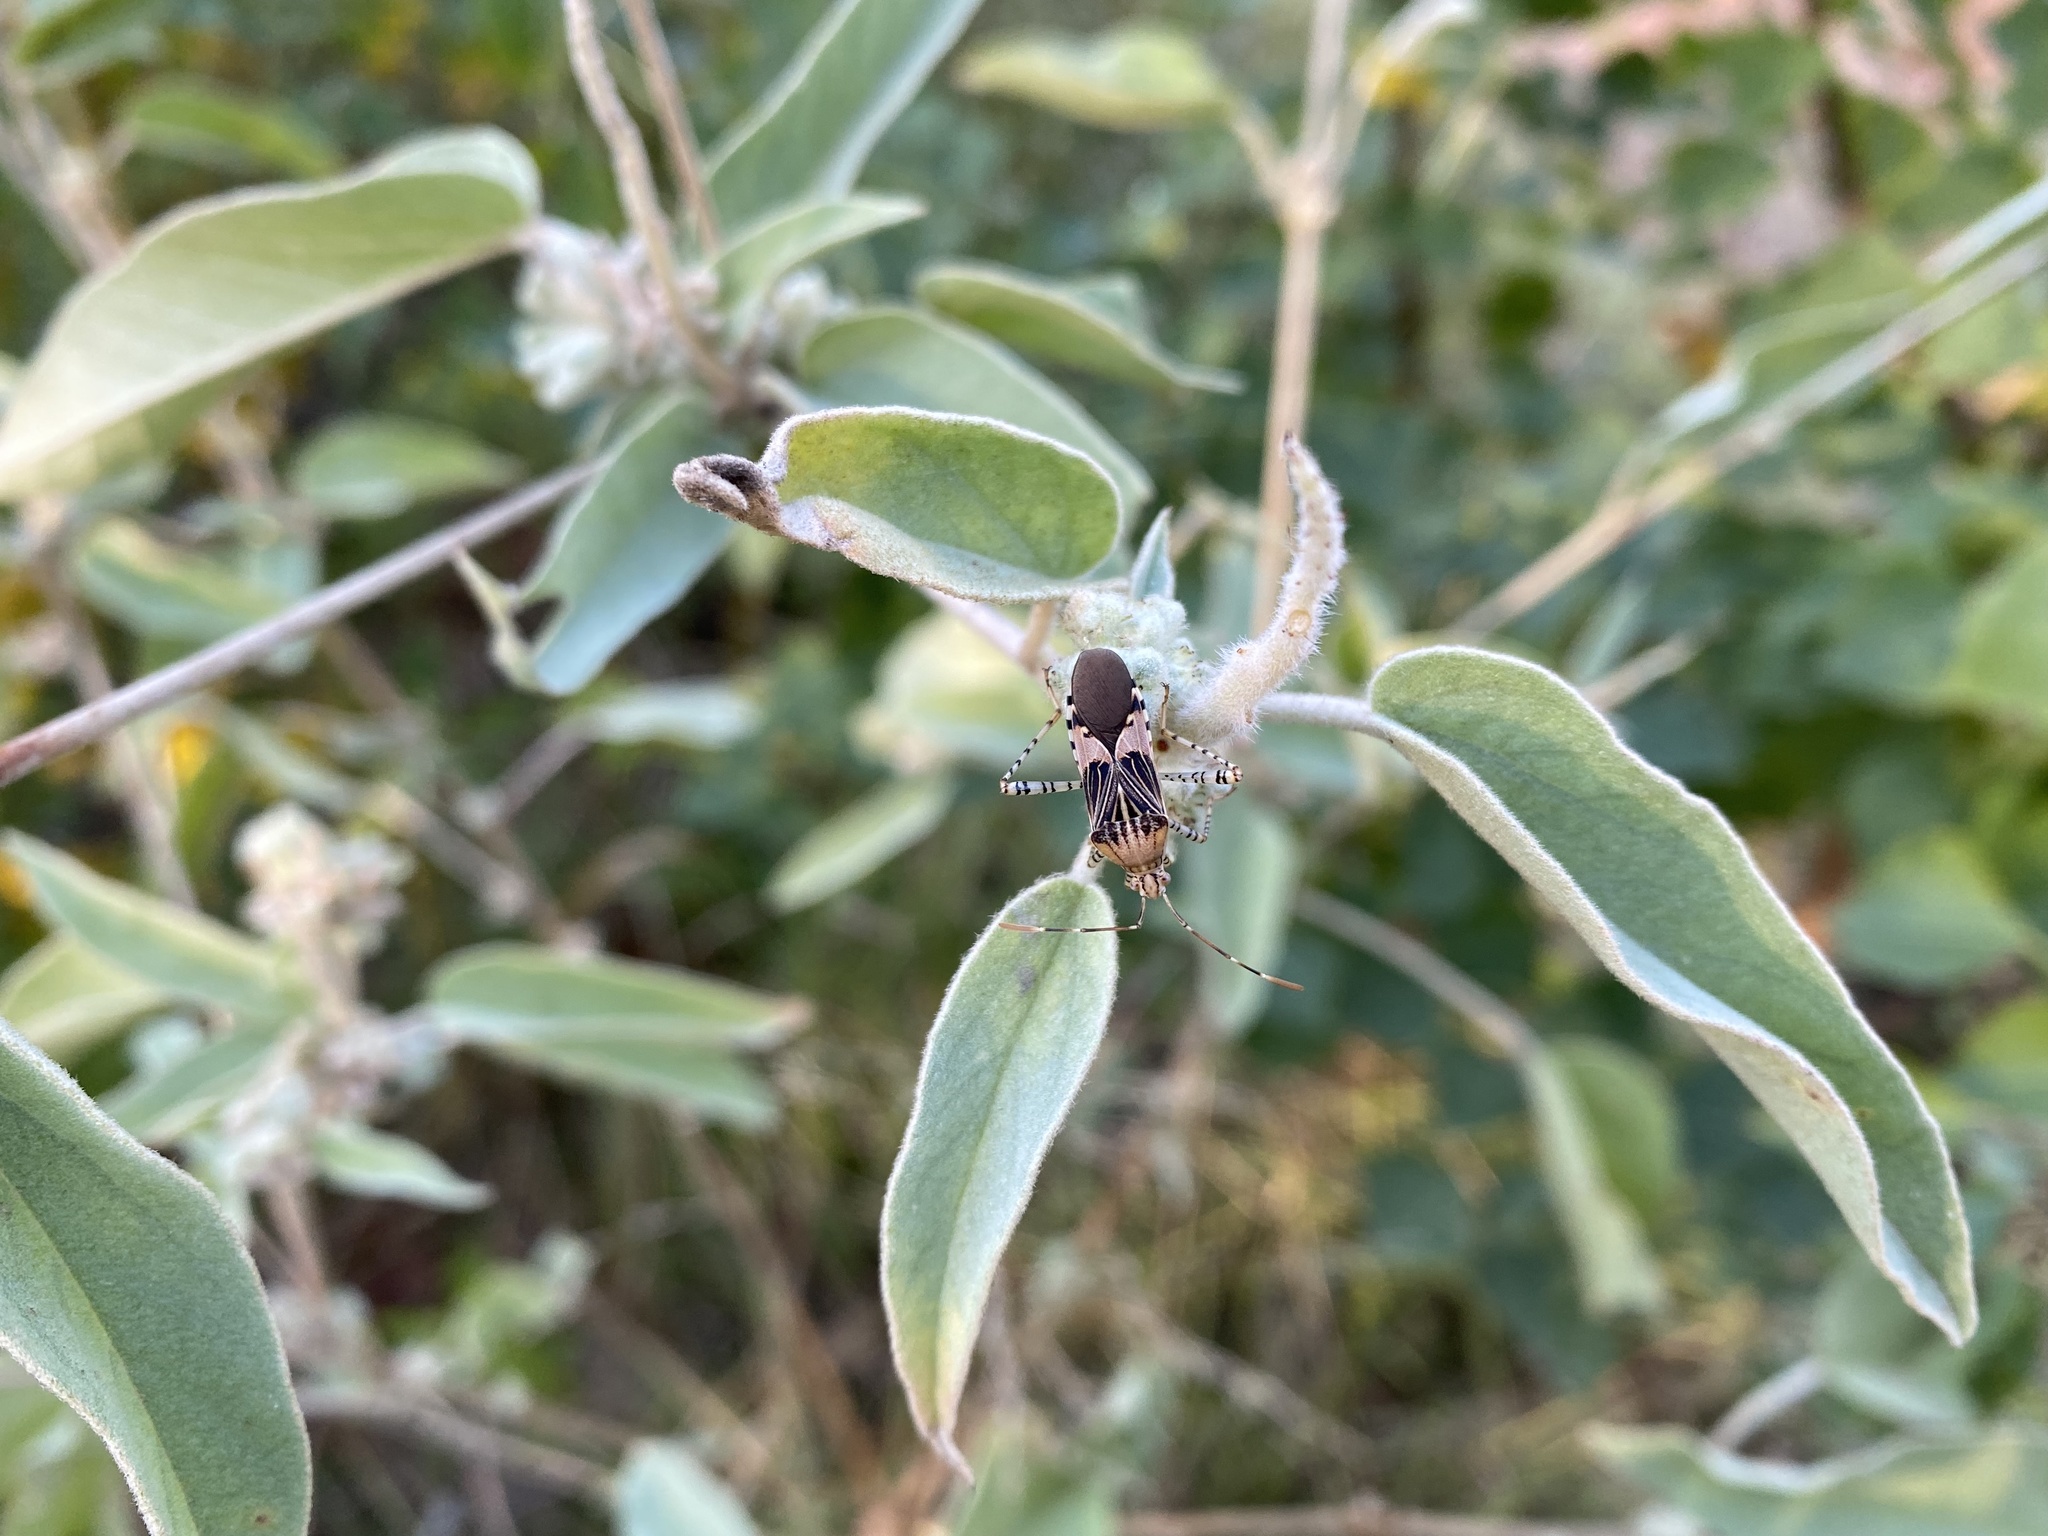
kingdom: Animalia
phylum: Arthropoda
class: Insecta
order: Hemiptera
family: Coreidae
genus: Hypselonotus
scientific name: Hypselonotus punctiventris
